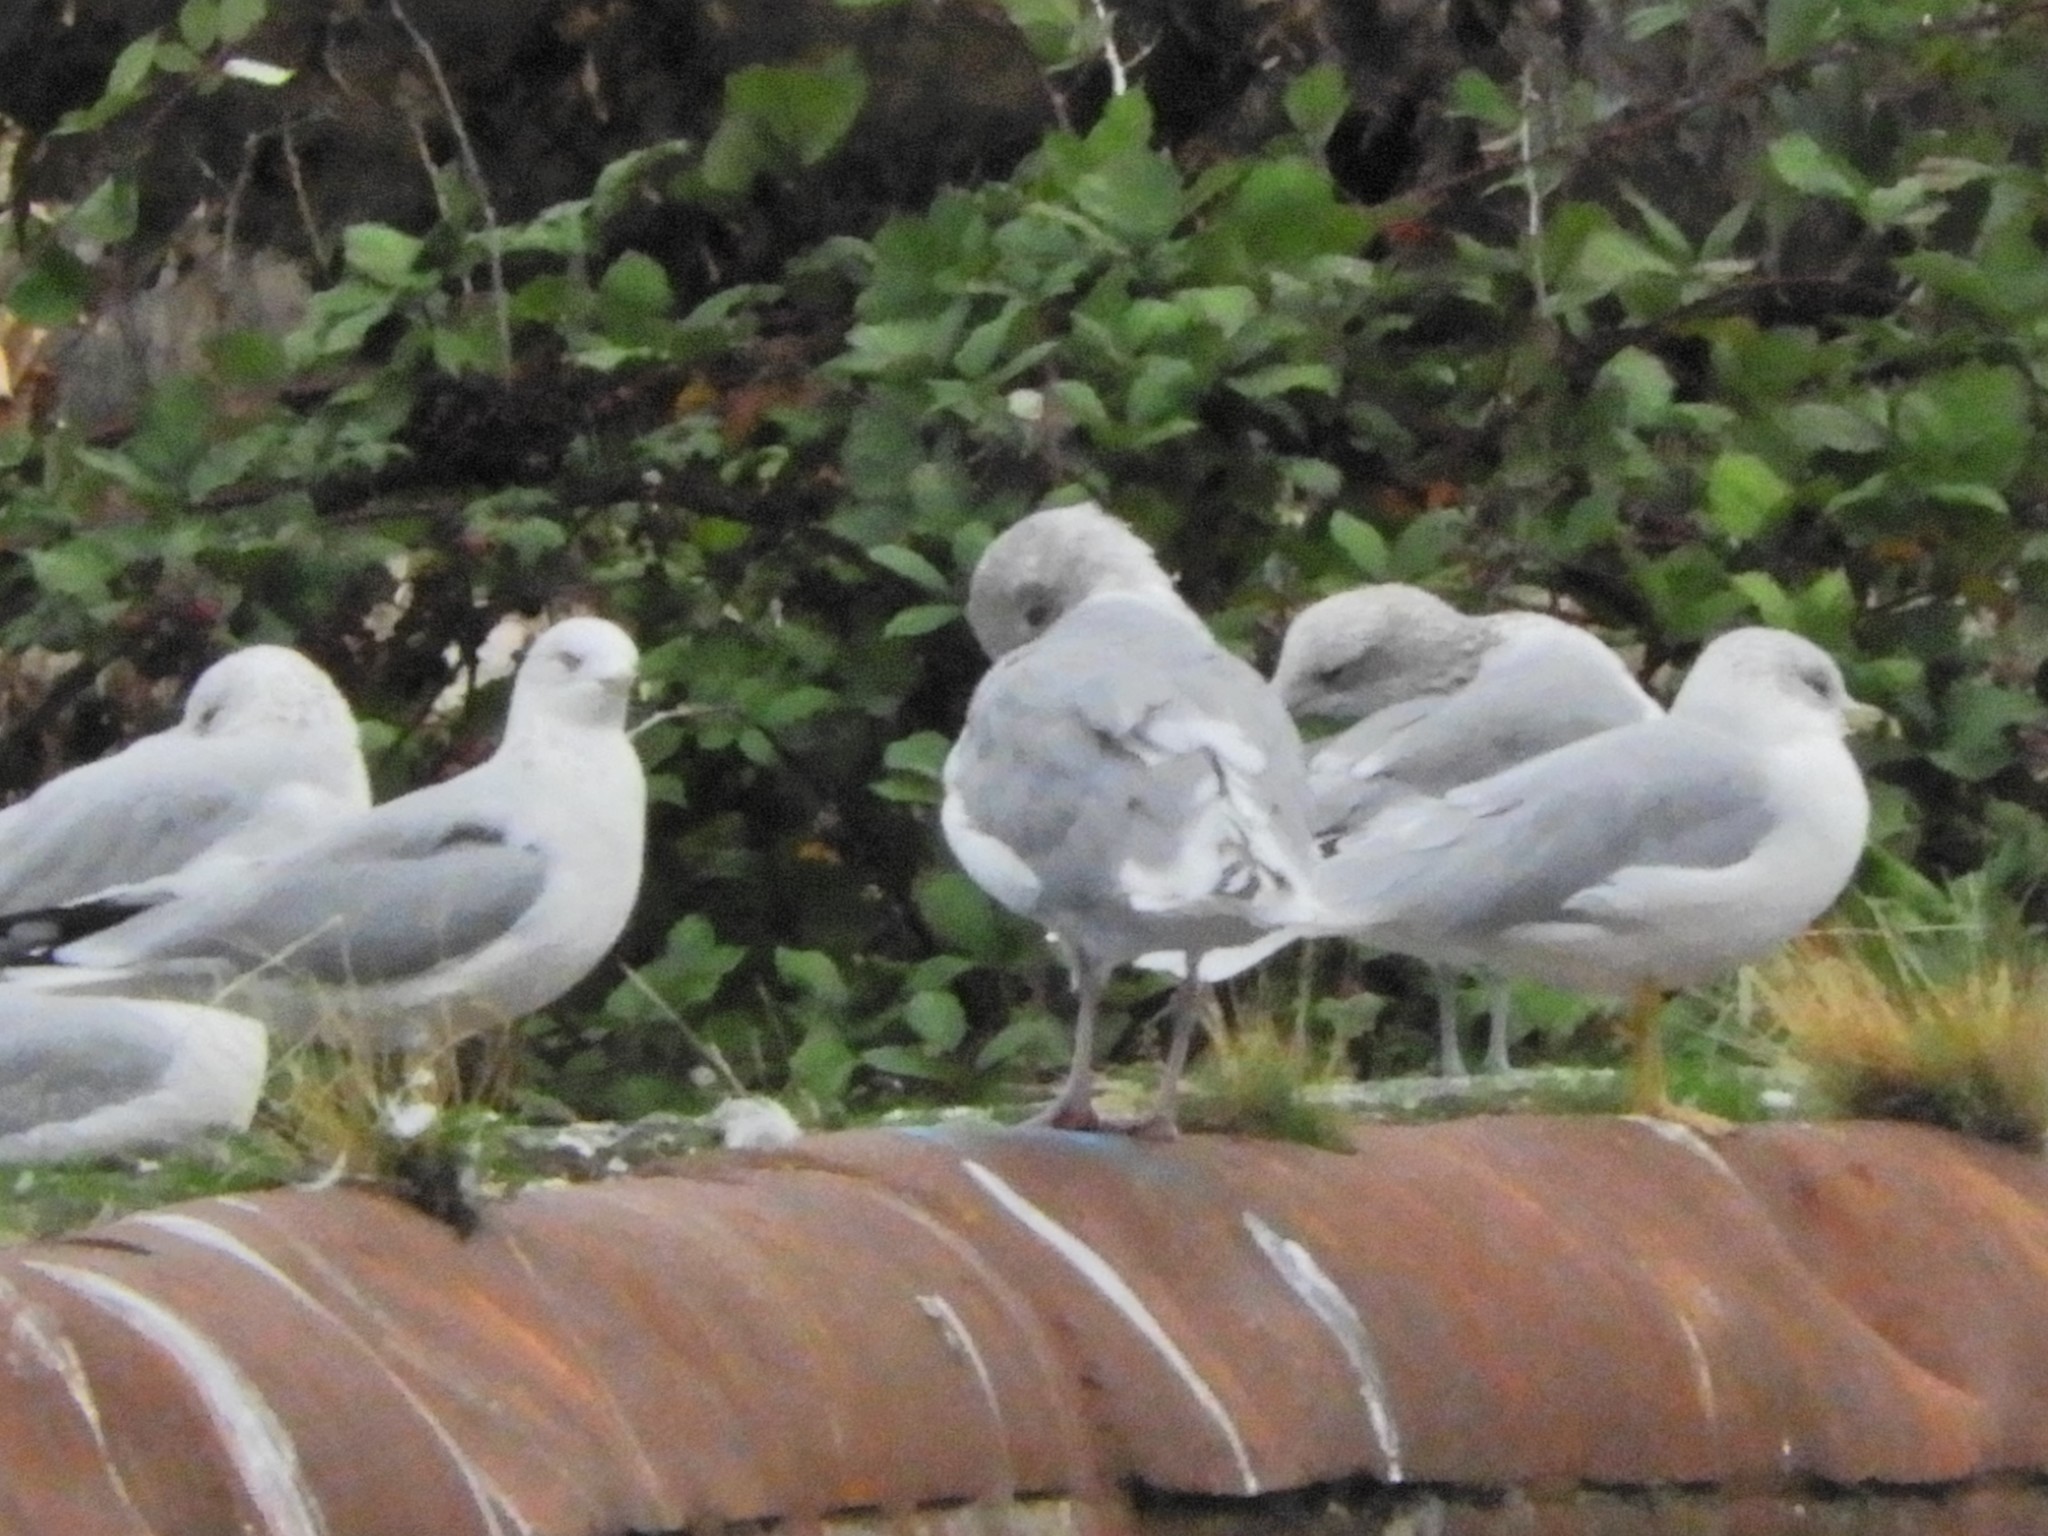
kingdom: Animalia
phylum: Chordata
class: Aves
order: Charadriiformes
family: Laridae
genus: Larus
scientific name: Larus delawarensis
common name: Ring-billed gull
